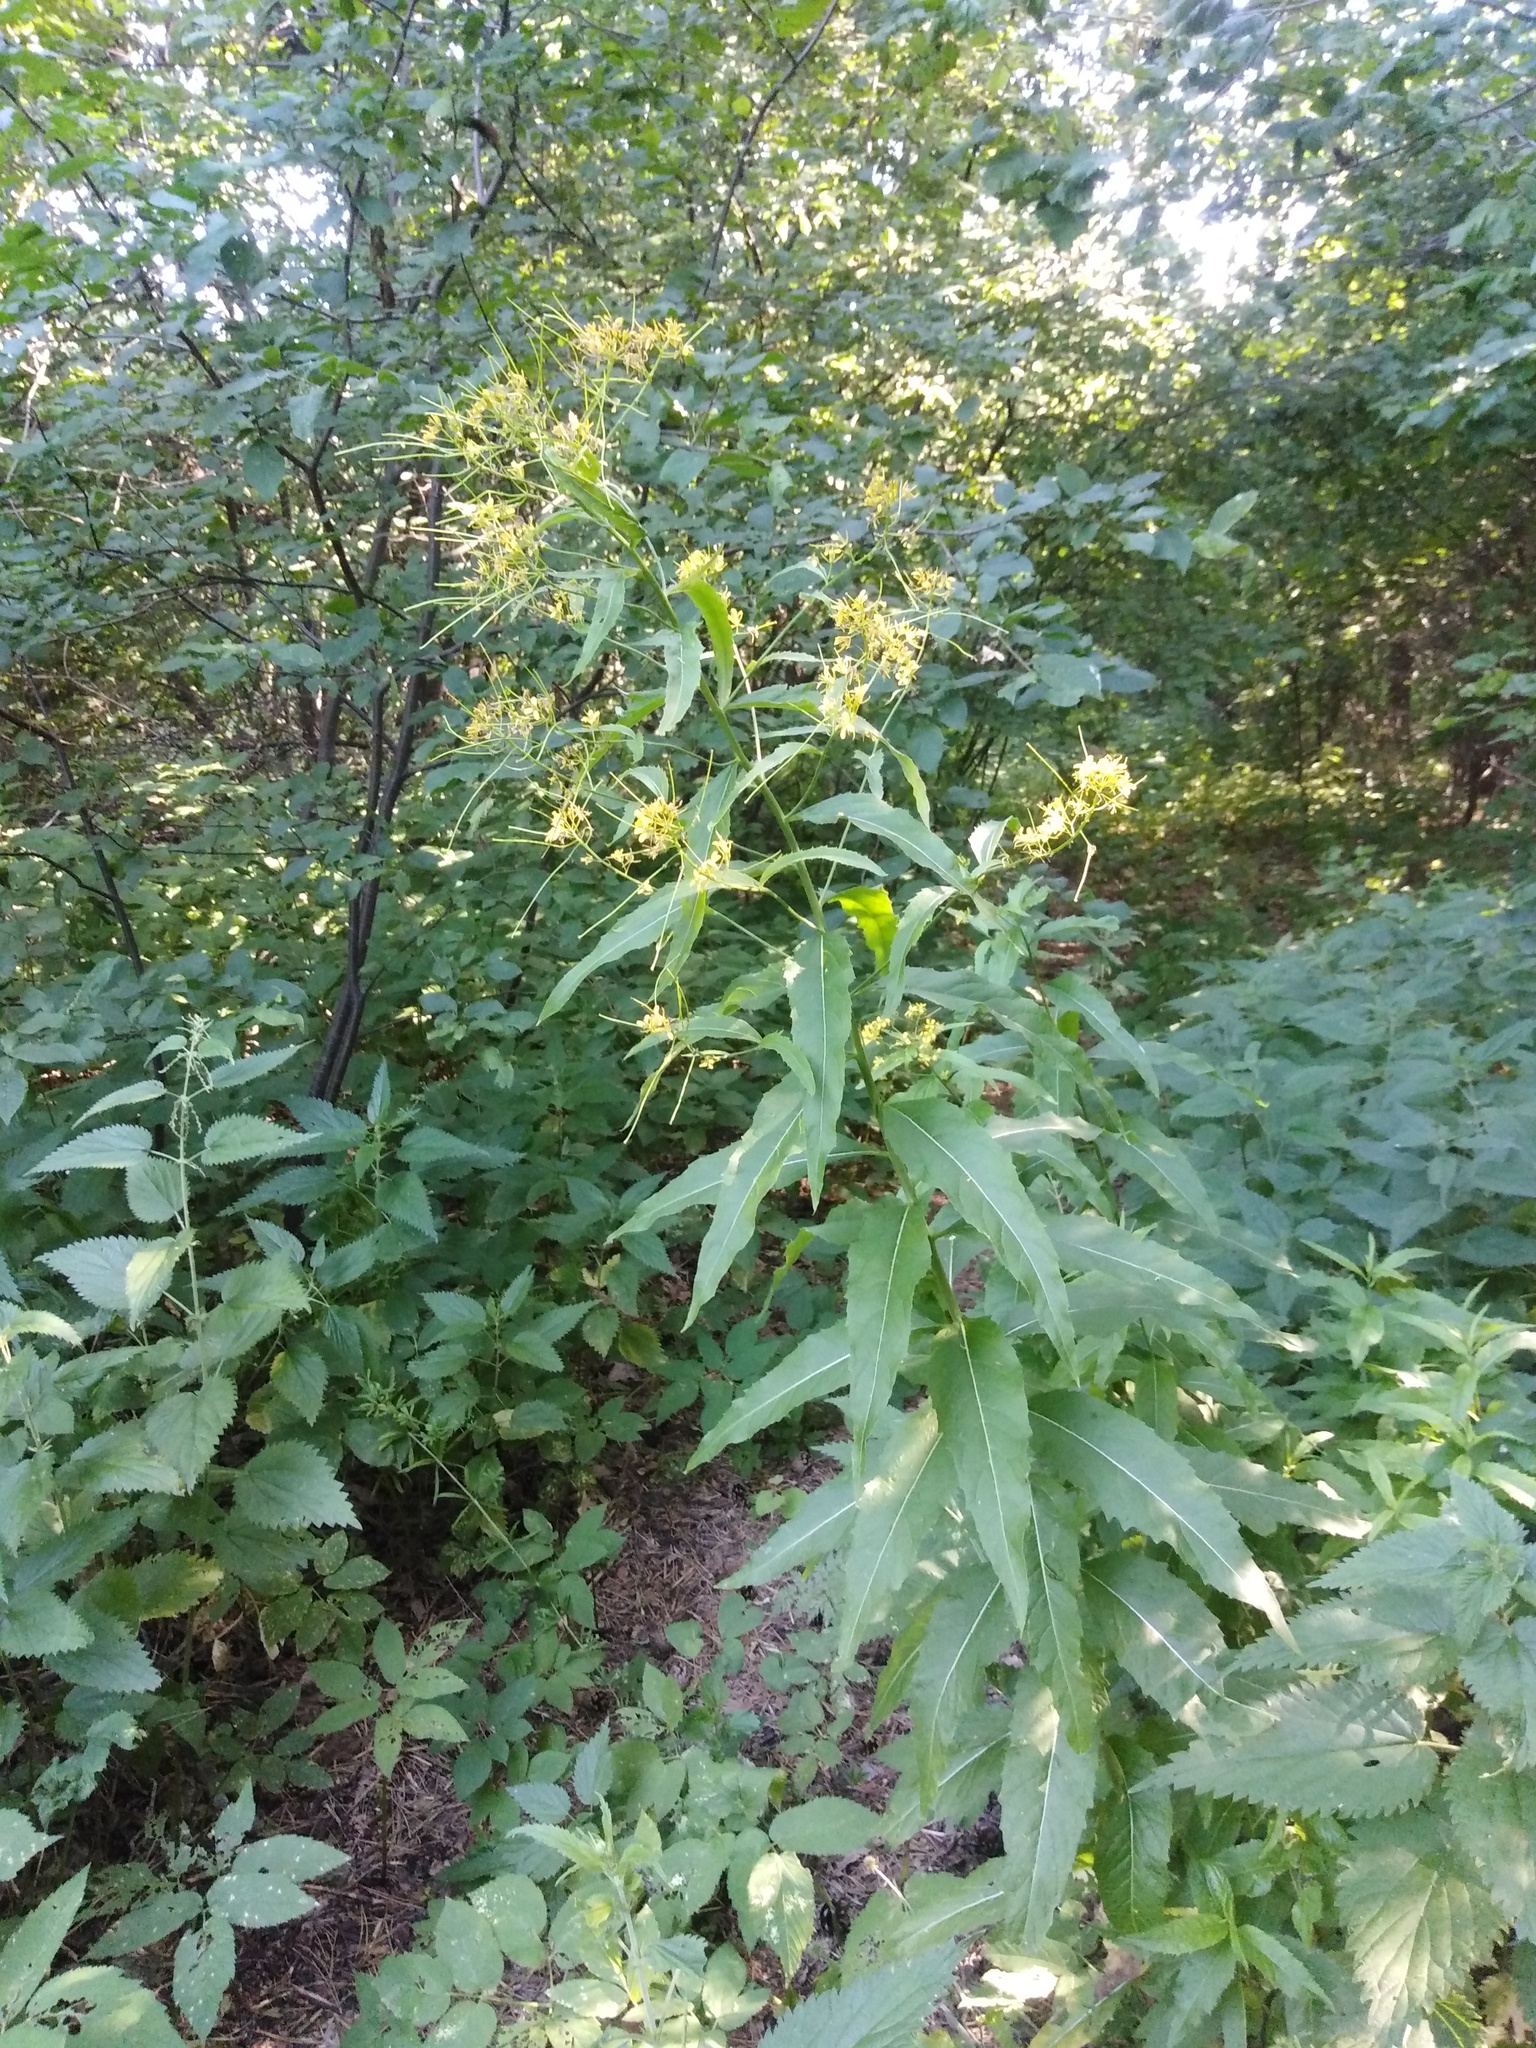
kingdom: Plantae
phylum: Tracheophyta
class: Magnoliopsida
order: Brassicales
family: Brassicaceae
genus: Sisymbrium
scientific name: Sisymbrium strictissimum
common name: Perennial rocket
